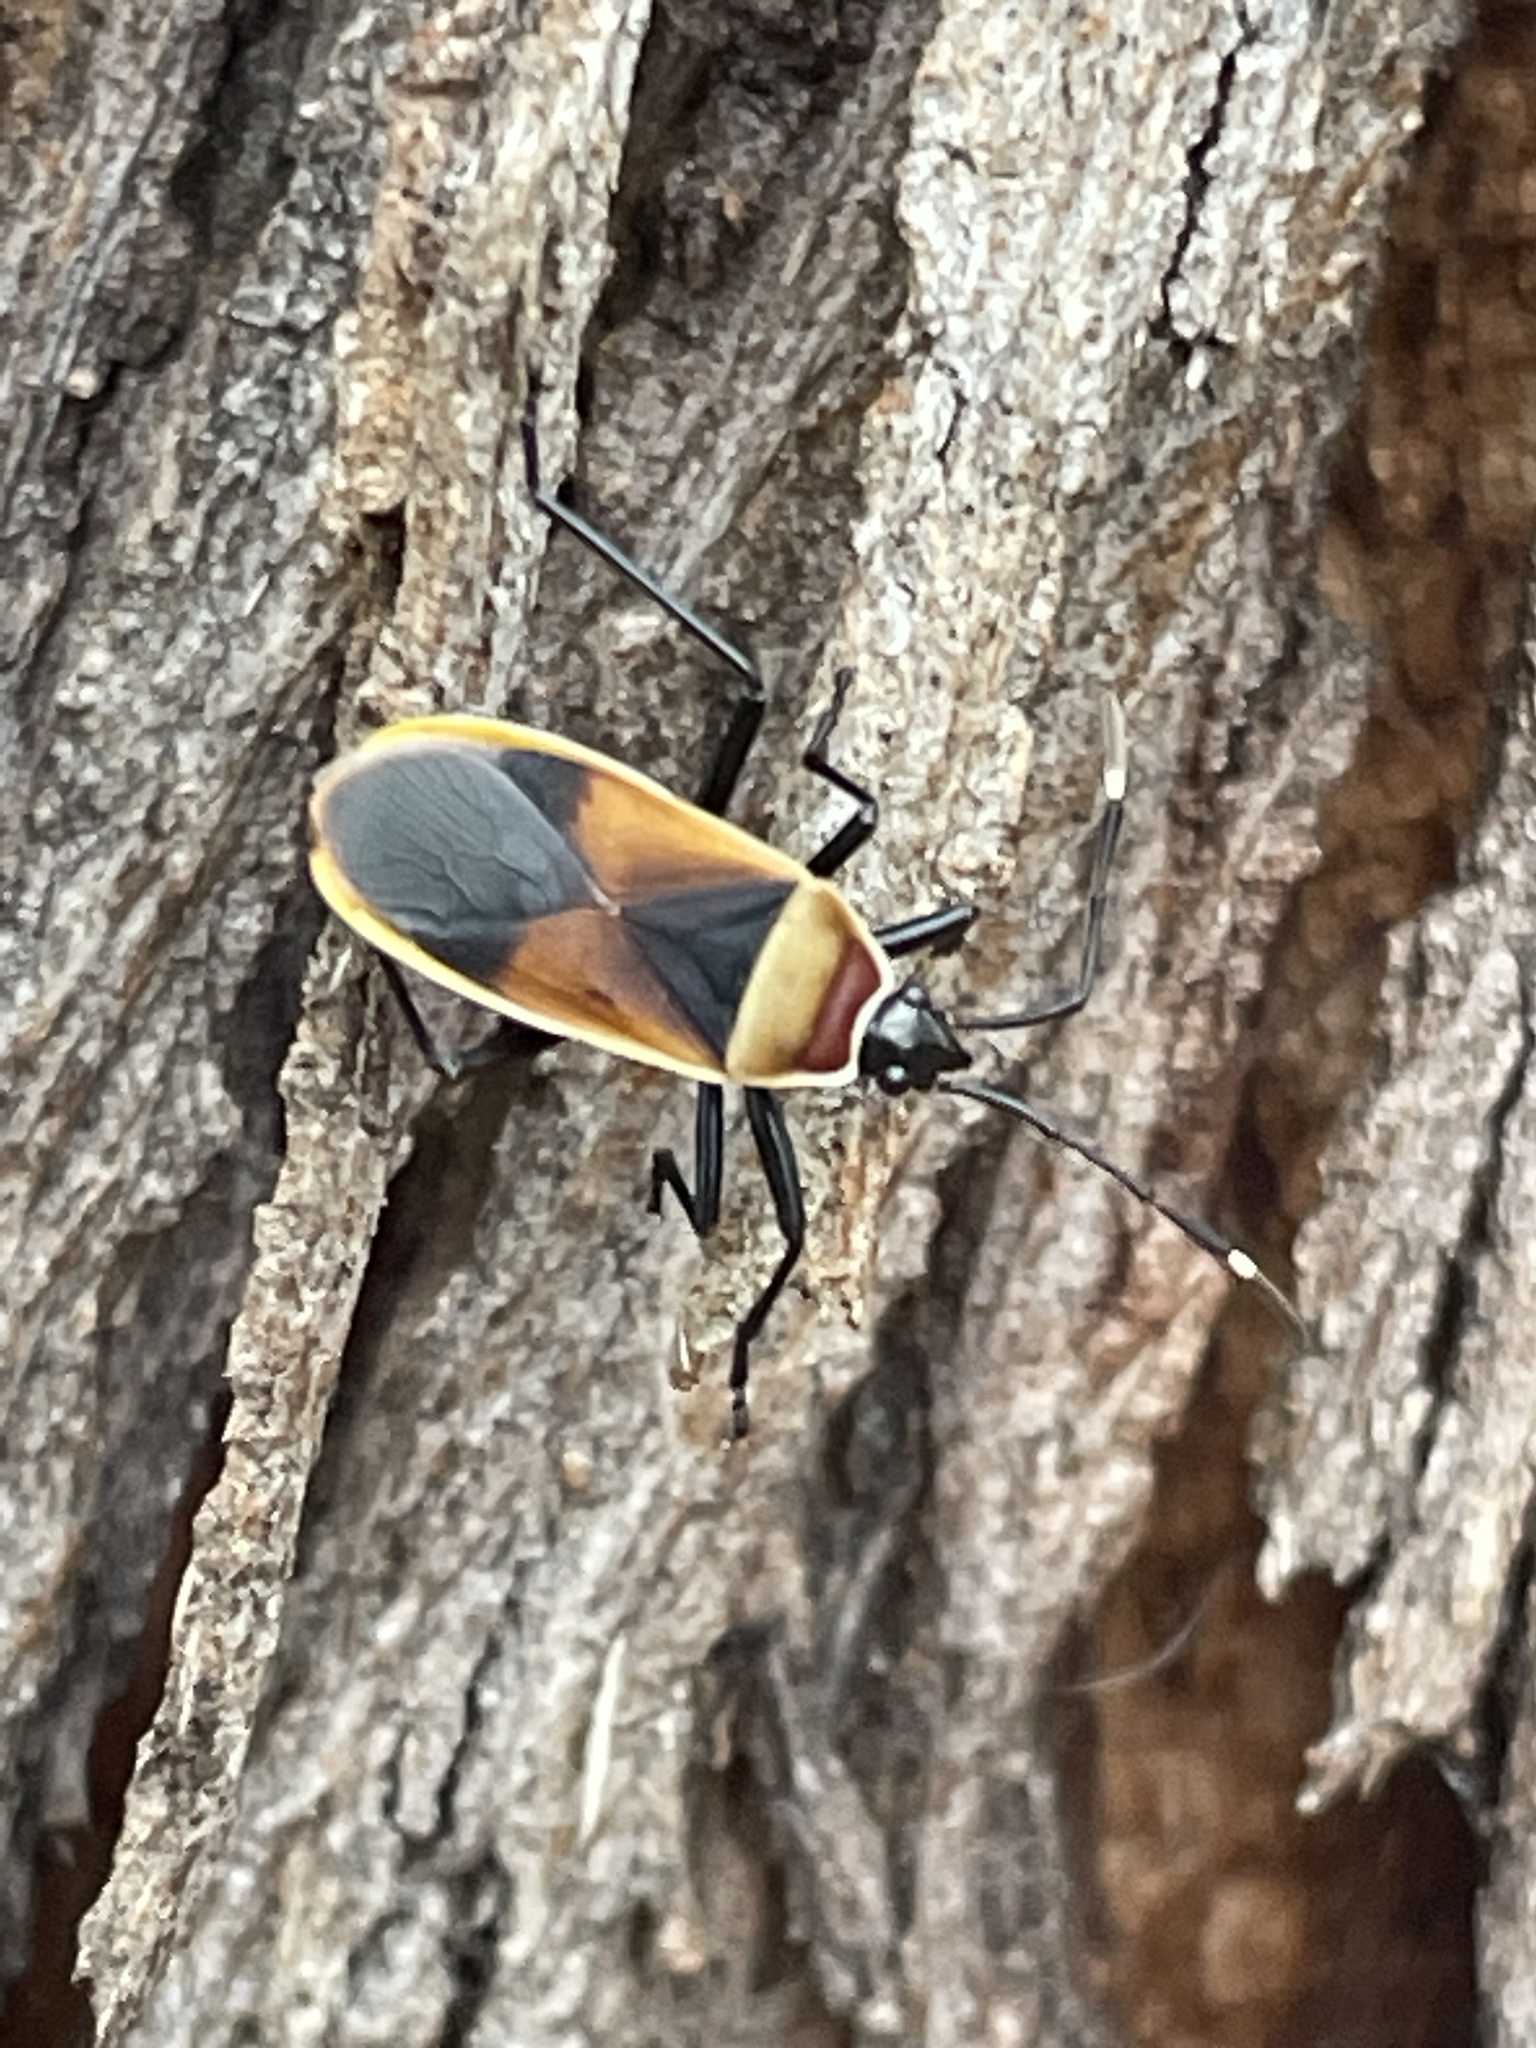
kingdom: Animalia
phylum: Arthropoda
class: Insecta
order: Hemiptera
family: Pyrrhocoridae
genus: Dindymus
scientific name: Dindymus
